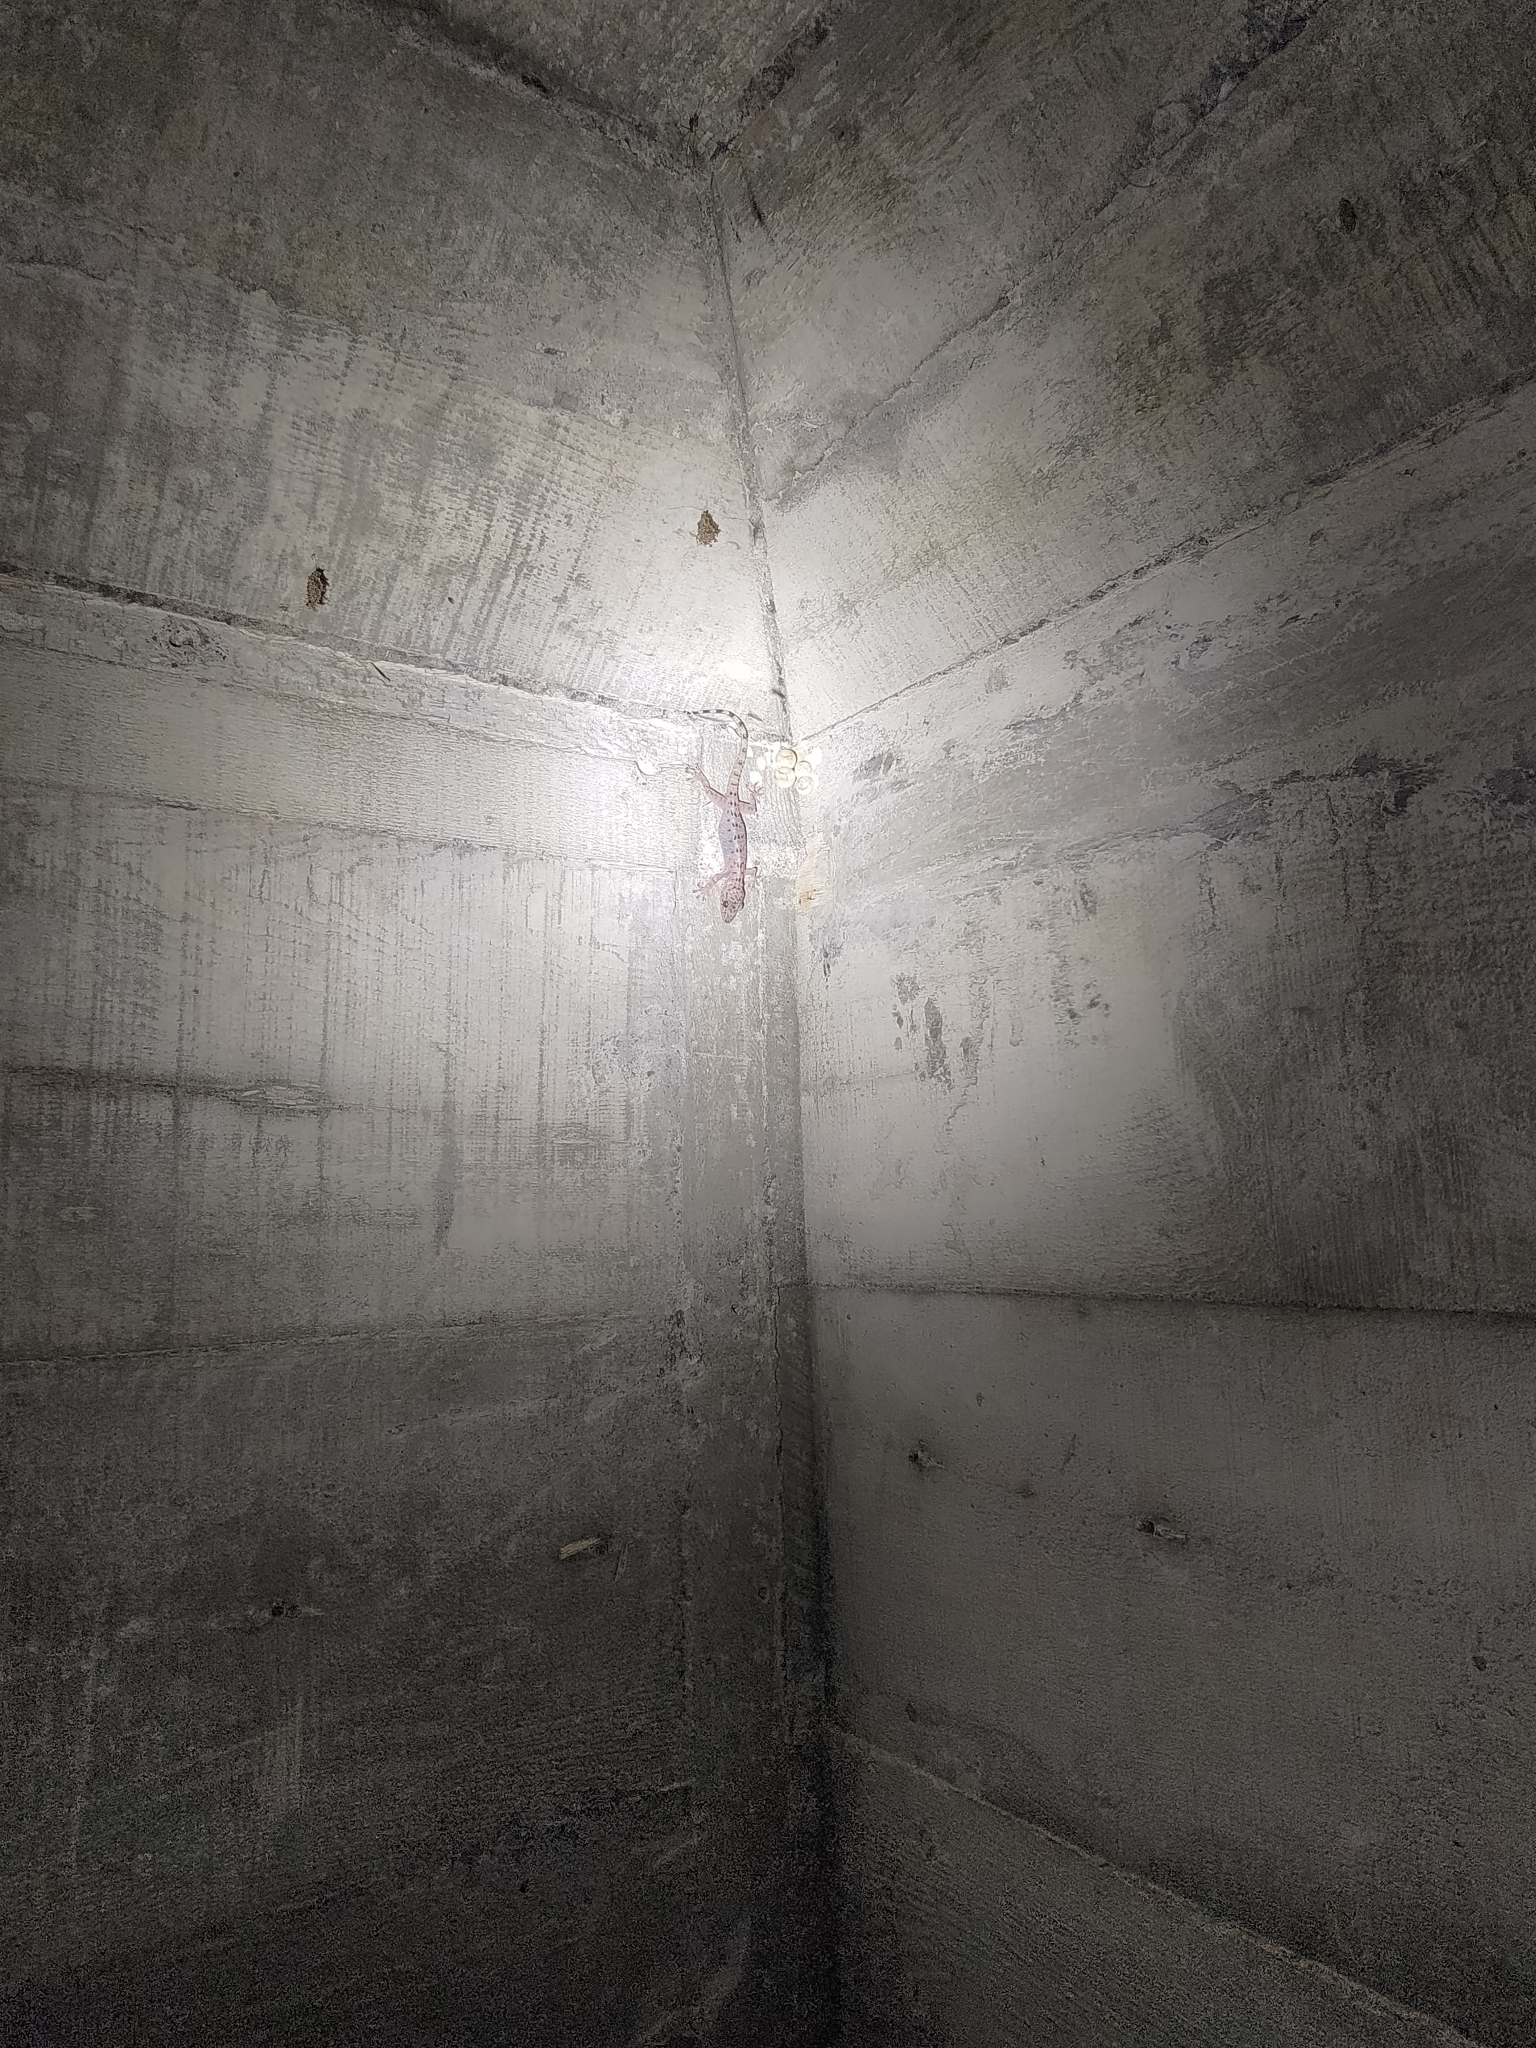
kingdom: Animalia
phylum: Chordata
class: Squamata
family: Gekkonidae
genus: Gekko
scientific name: Gekko monarchus
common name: Spotted house gecko
